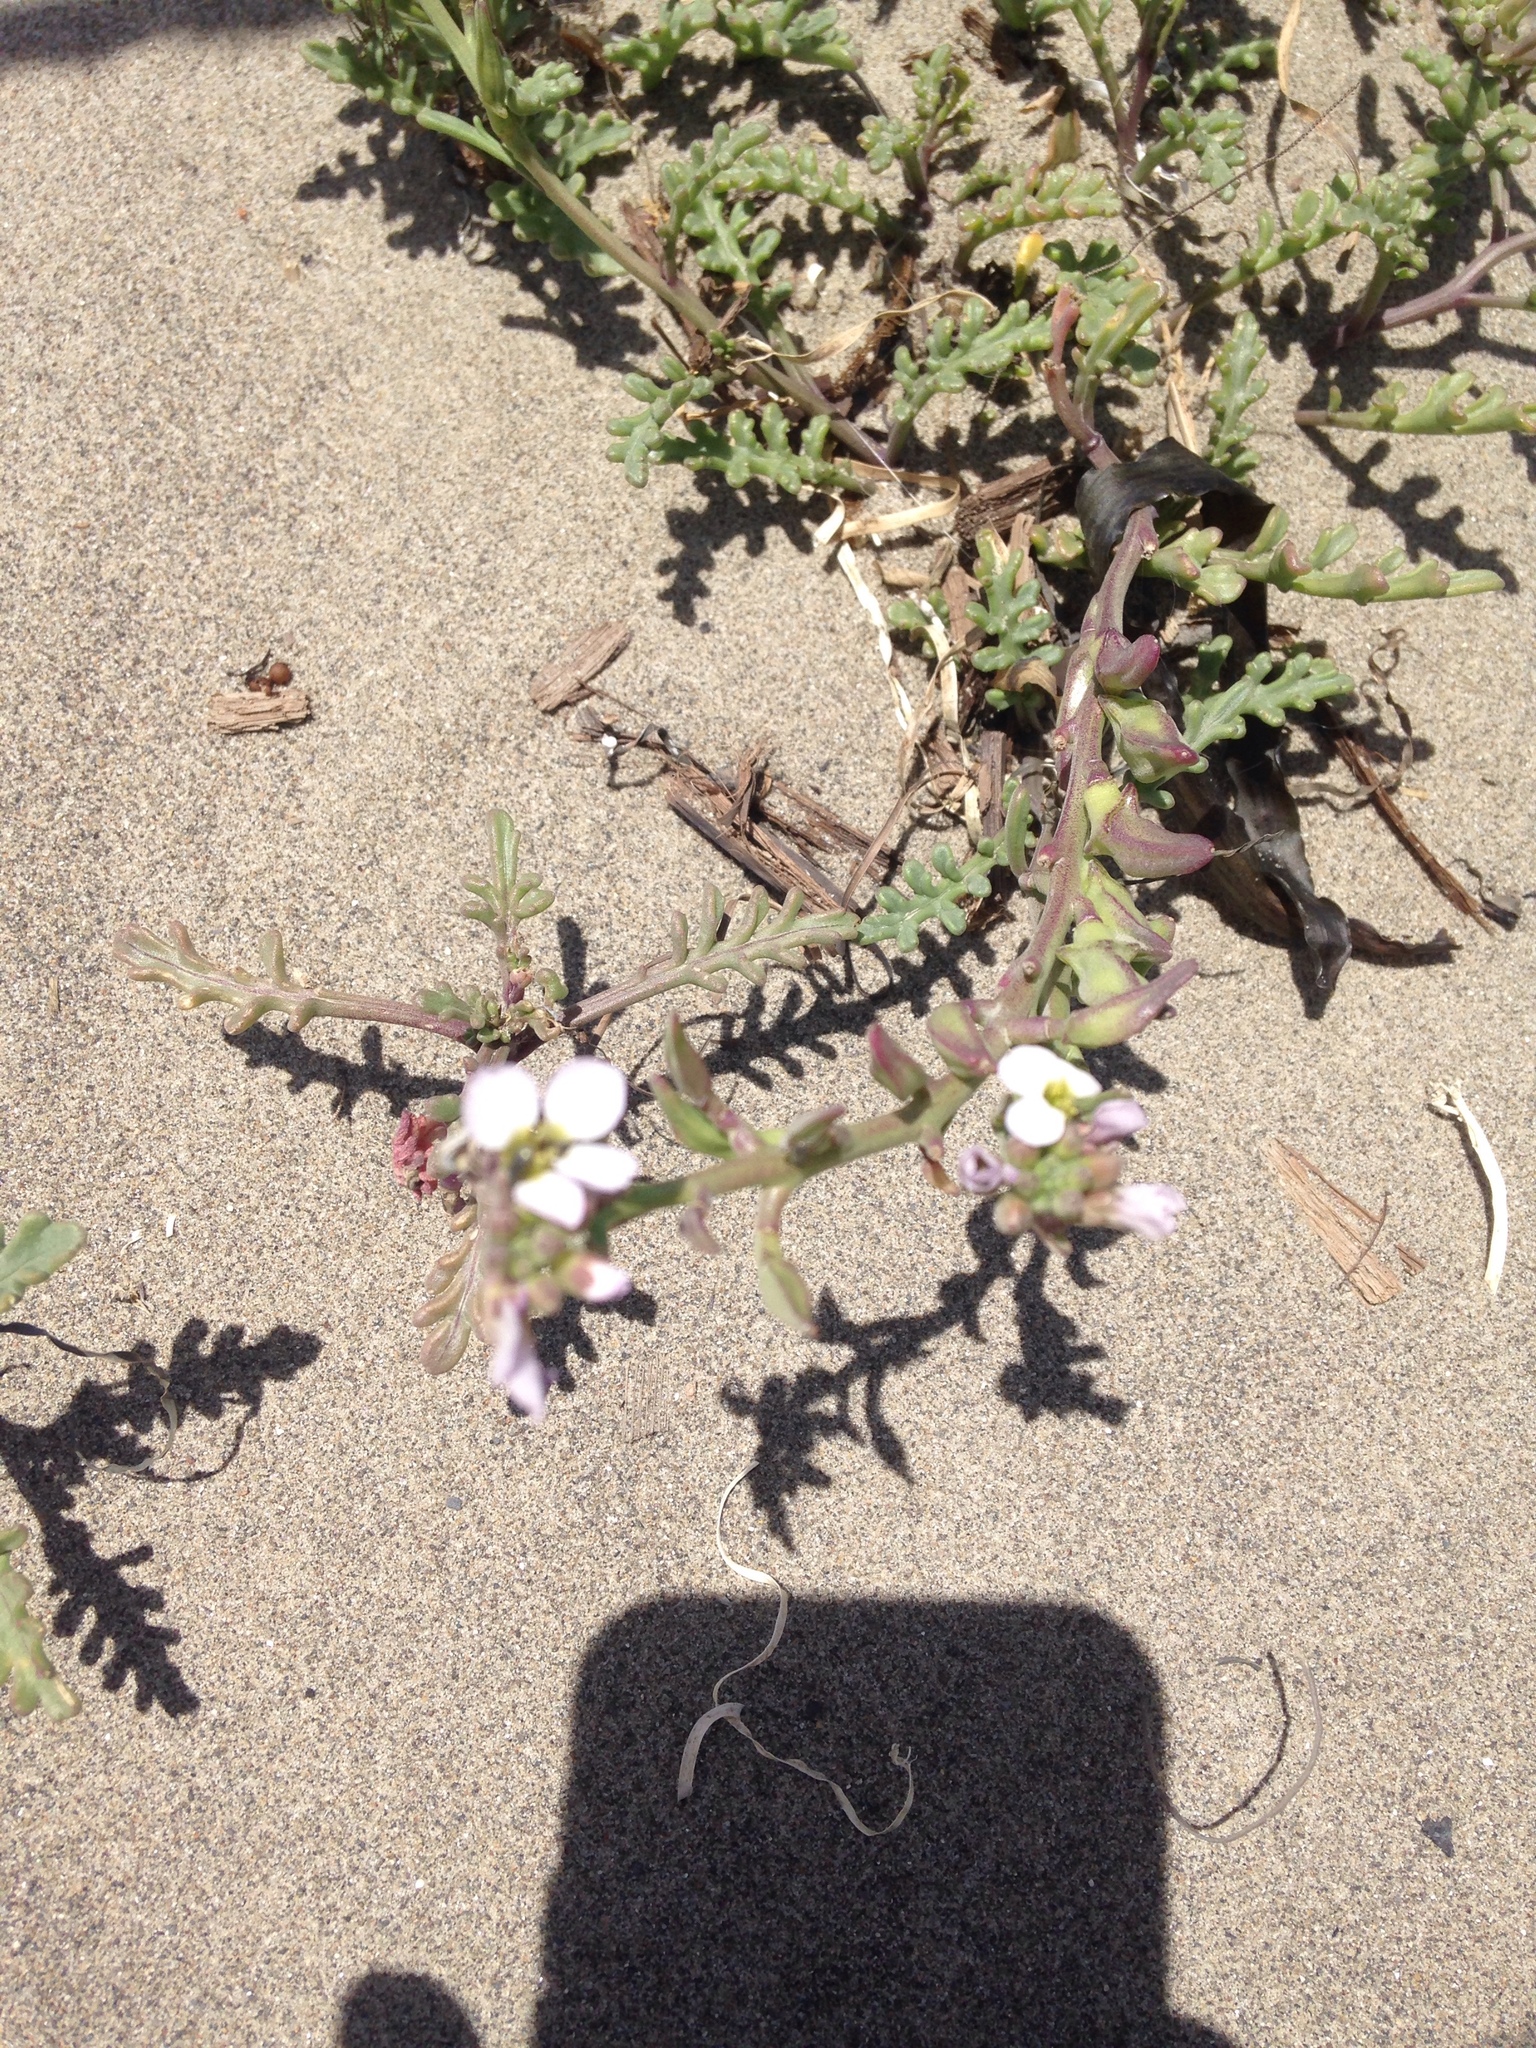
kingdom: Plantae
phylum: Tracheophyta
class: Magnoliopsida
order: Brassicales
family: Brassicaceae
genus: Cakile
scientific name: Cakile maritima
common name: Sea rocket
